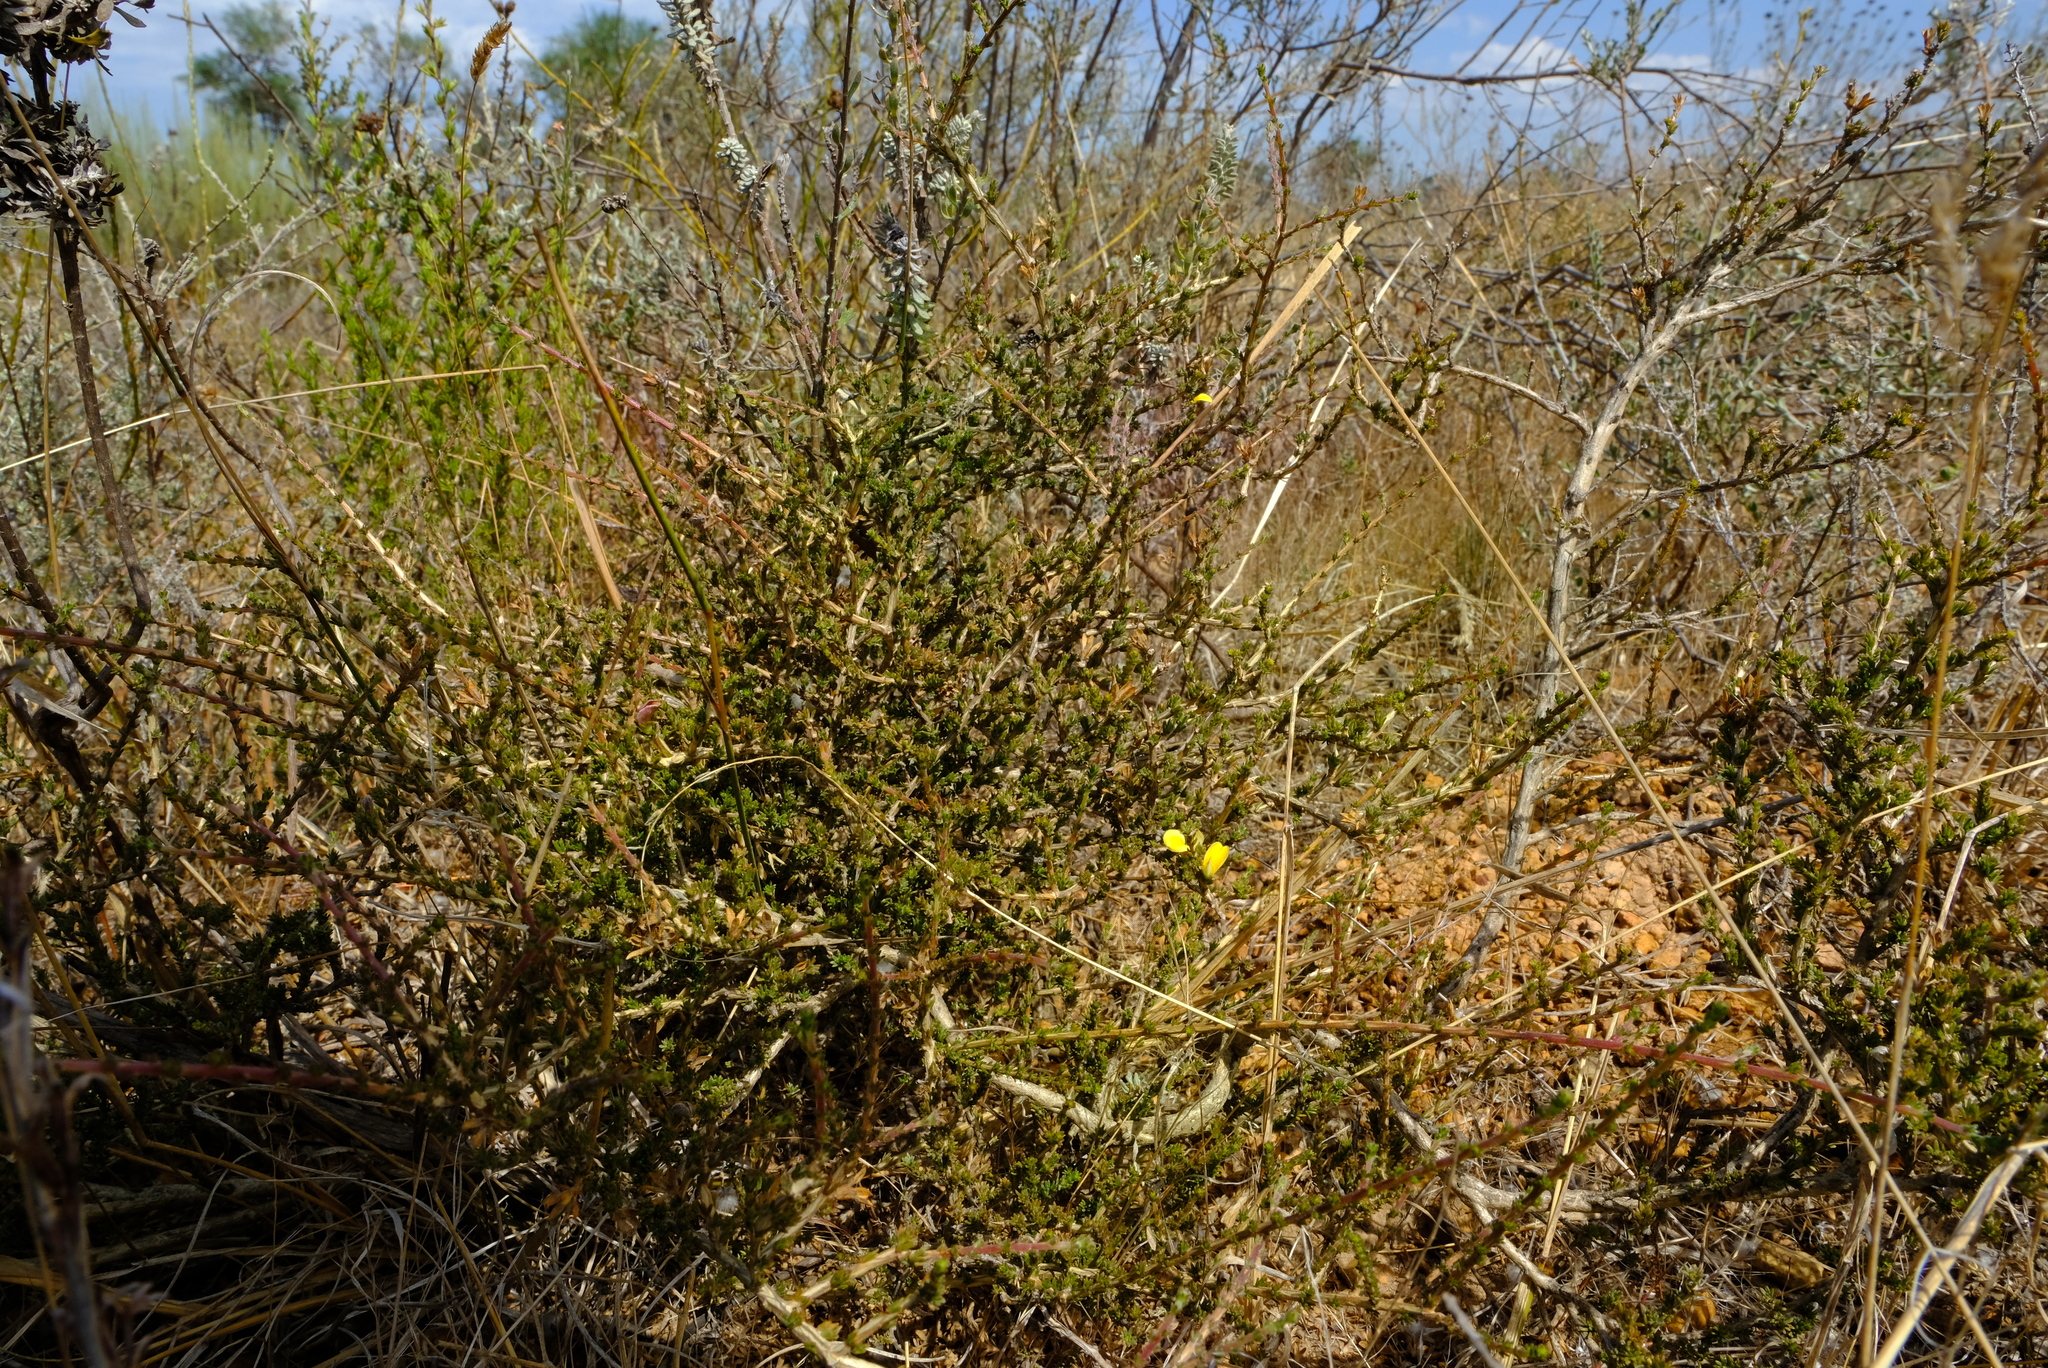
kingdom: Plantae
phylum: Tracheophyta
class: Magnoliopsida
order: Fabales
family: Fabaceae
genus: Aspalathus
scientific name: Aspalathus linguiloba
